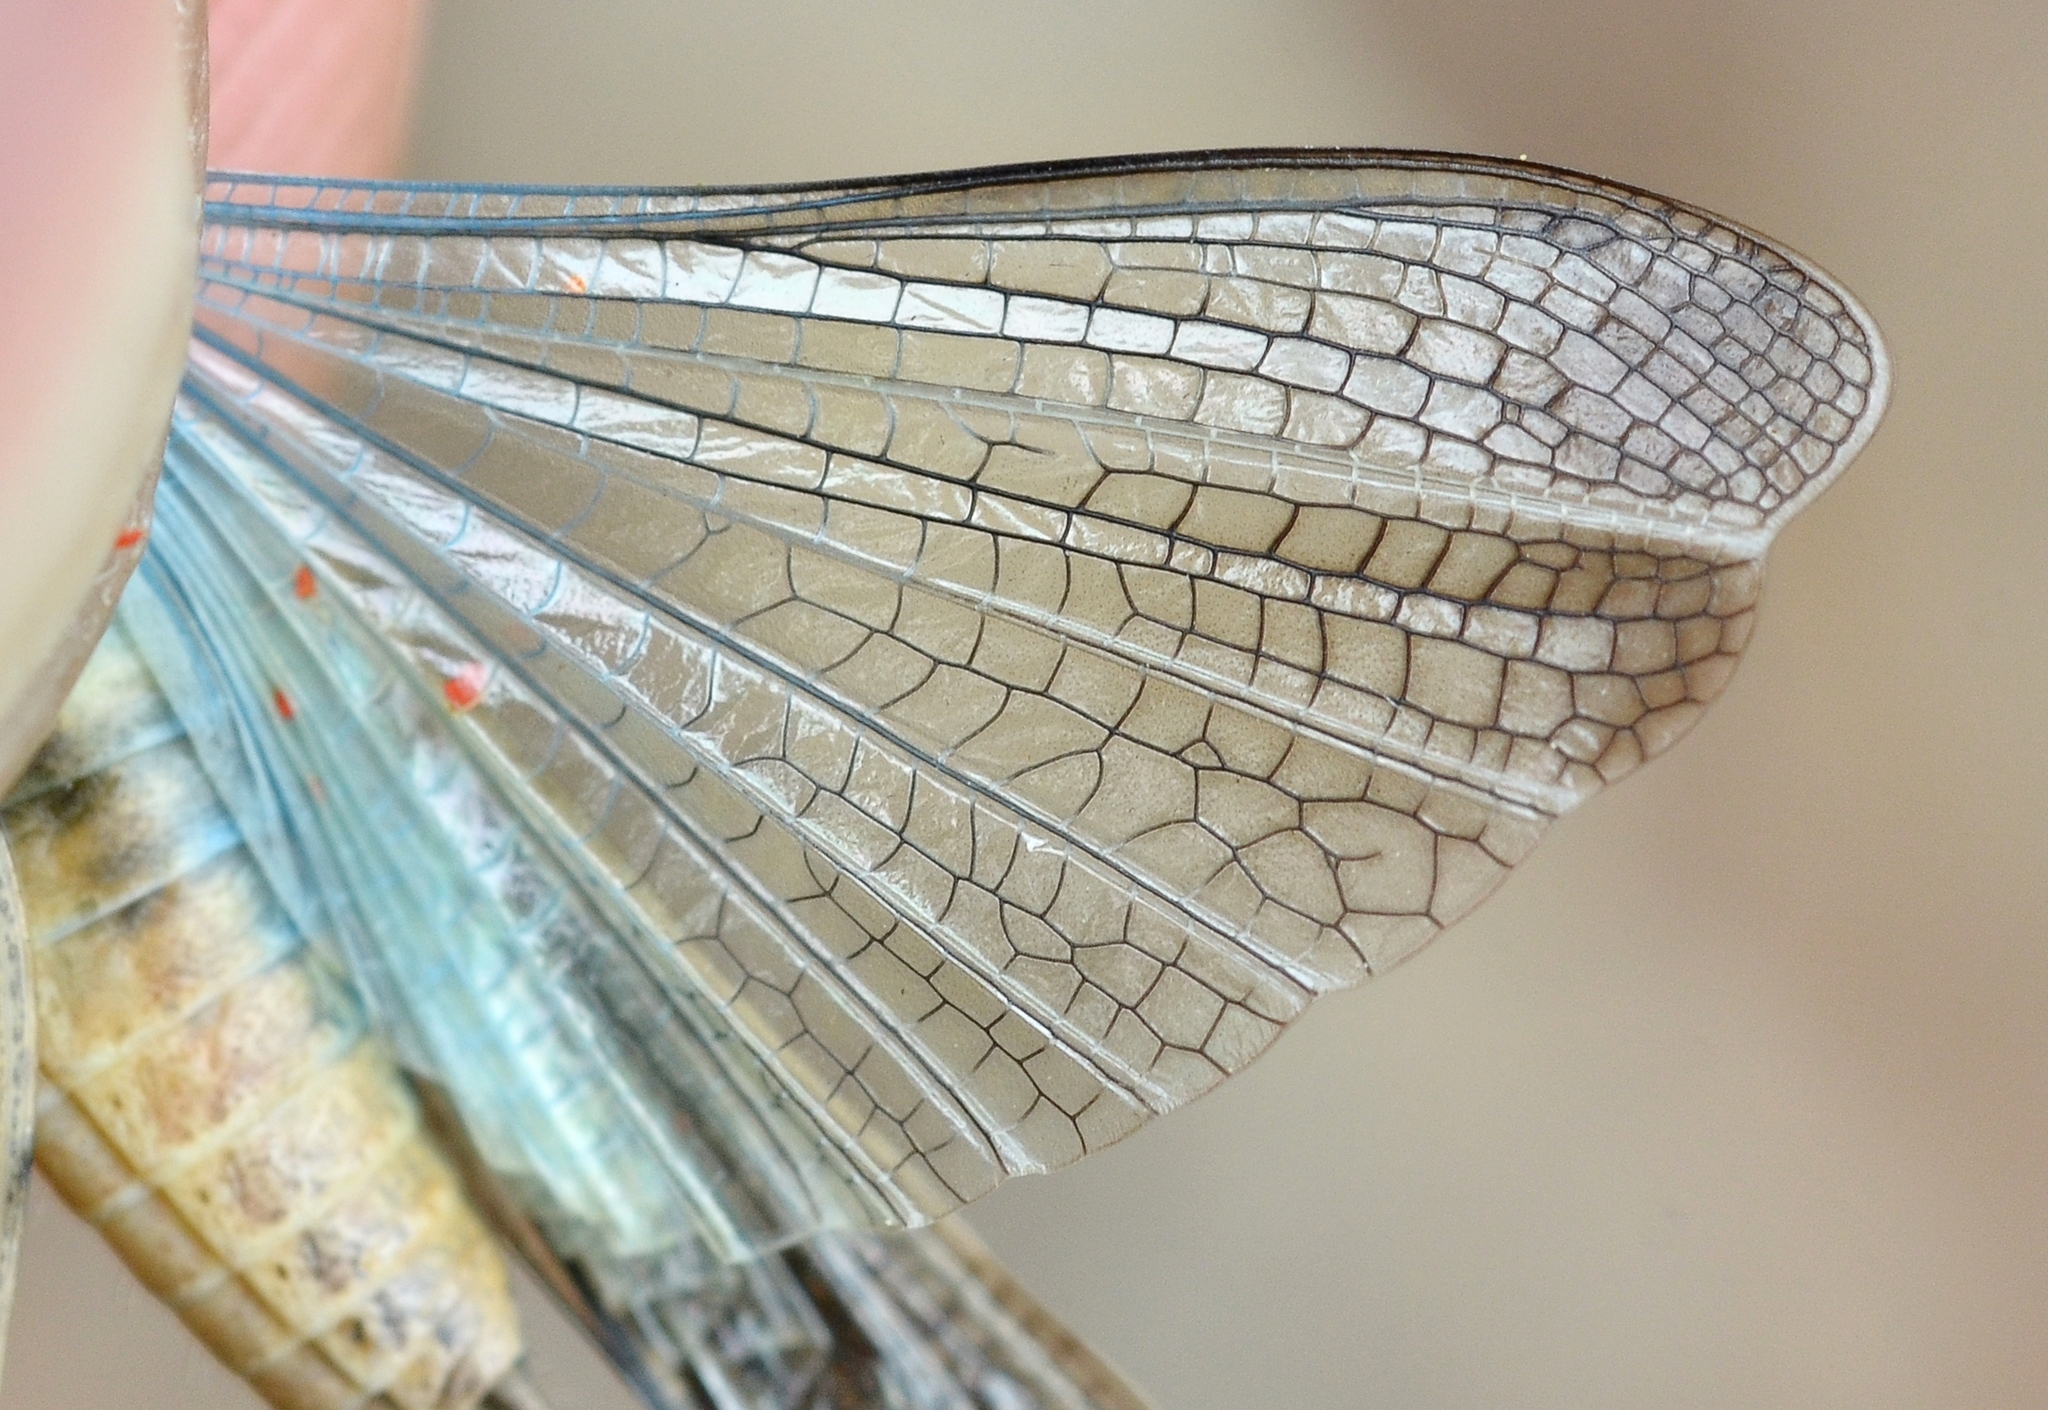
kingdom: Animalia
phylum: Arthropoda
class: Insecta
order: Orthoptera
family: Acrididae
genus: Aiolopus
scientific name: Aiolopus strepens
